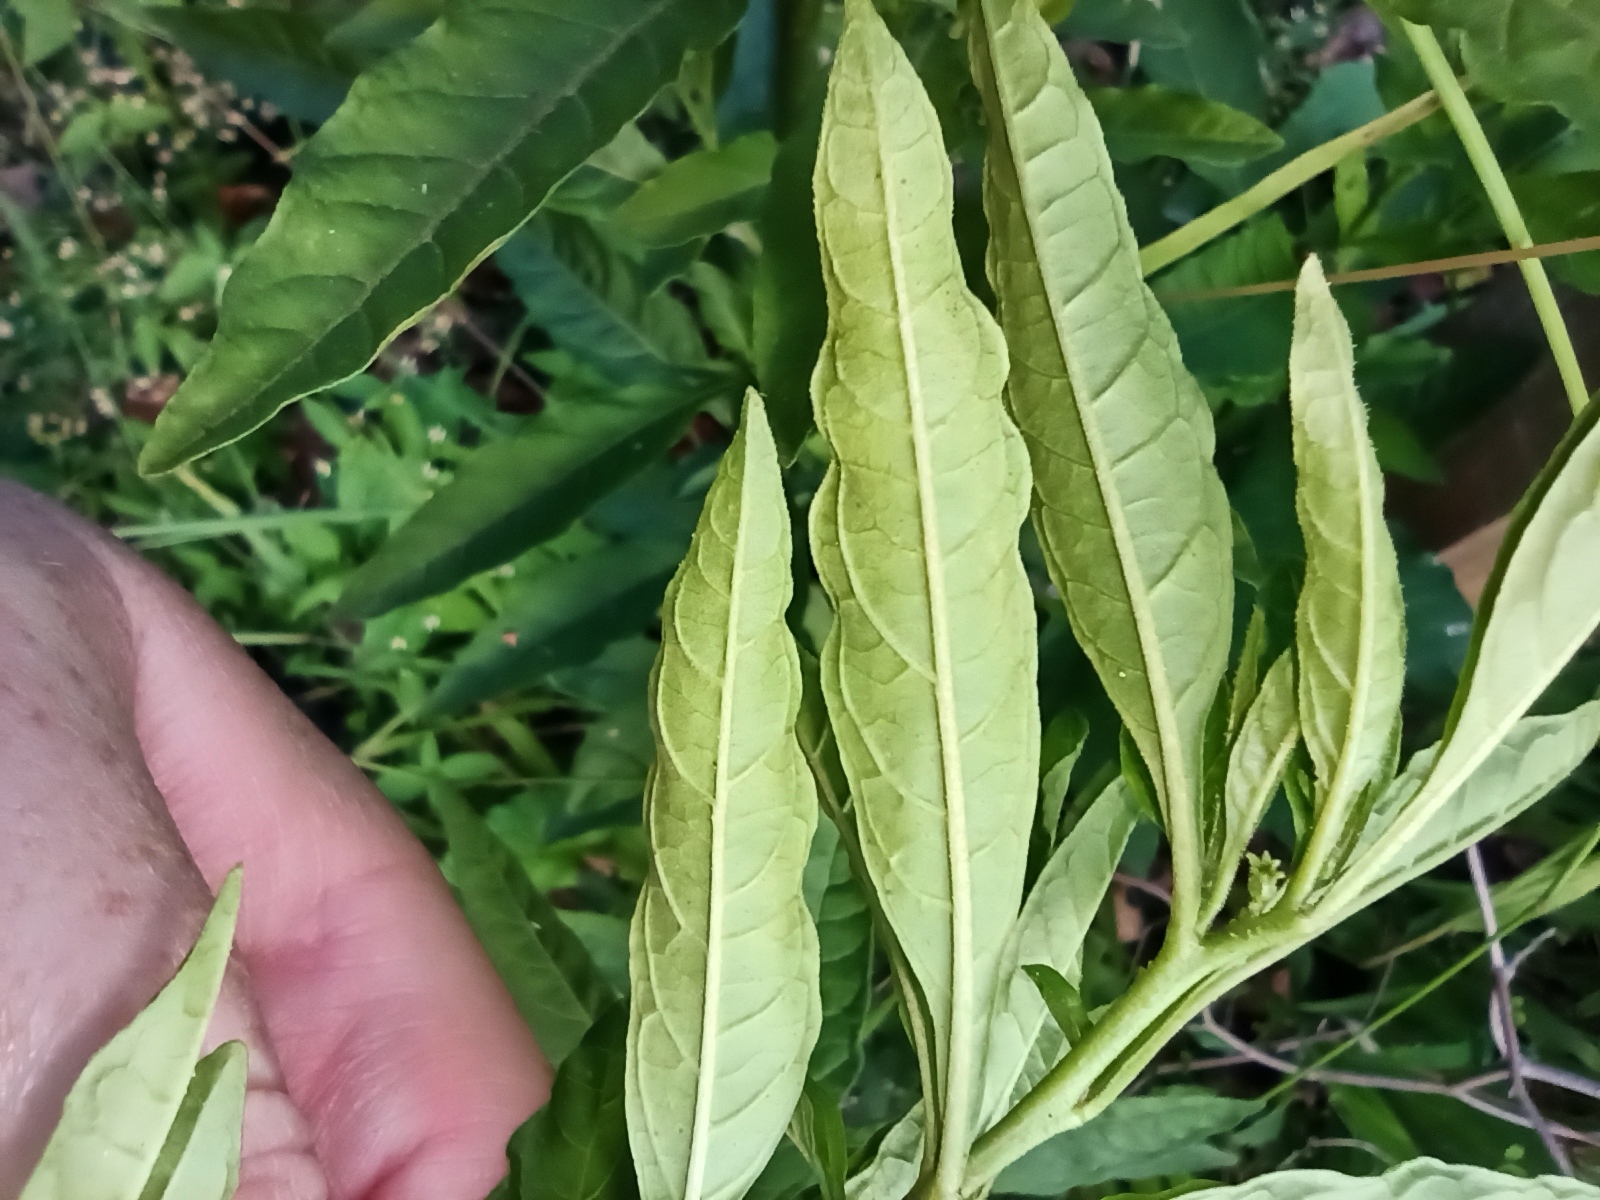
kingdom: Plantae
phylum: Tracheophyta
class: Magnoliopsida
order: Solanales
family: Solanaceae
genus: Solanum
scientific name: Solanum pseudocapsicum
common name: Jerusalem cherry
